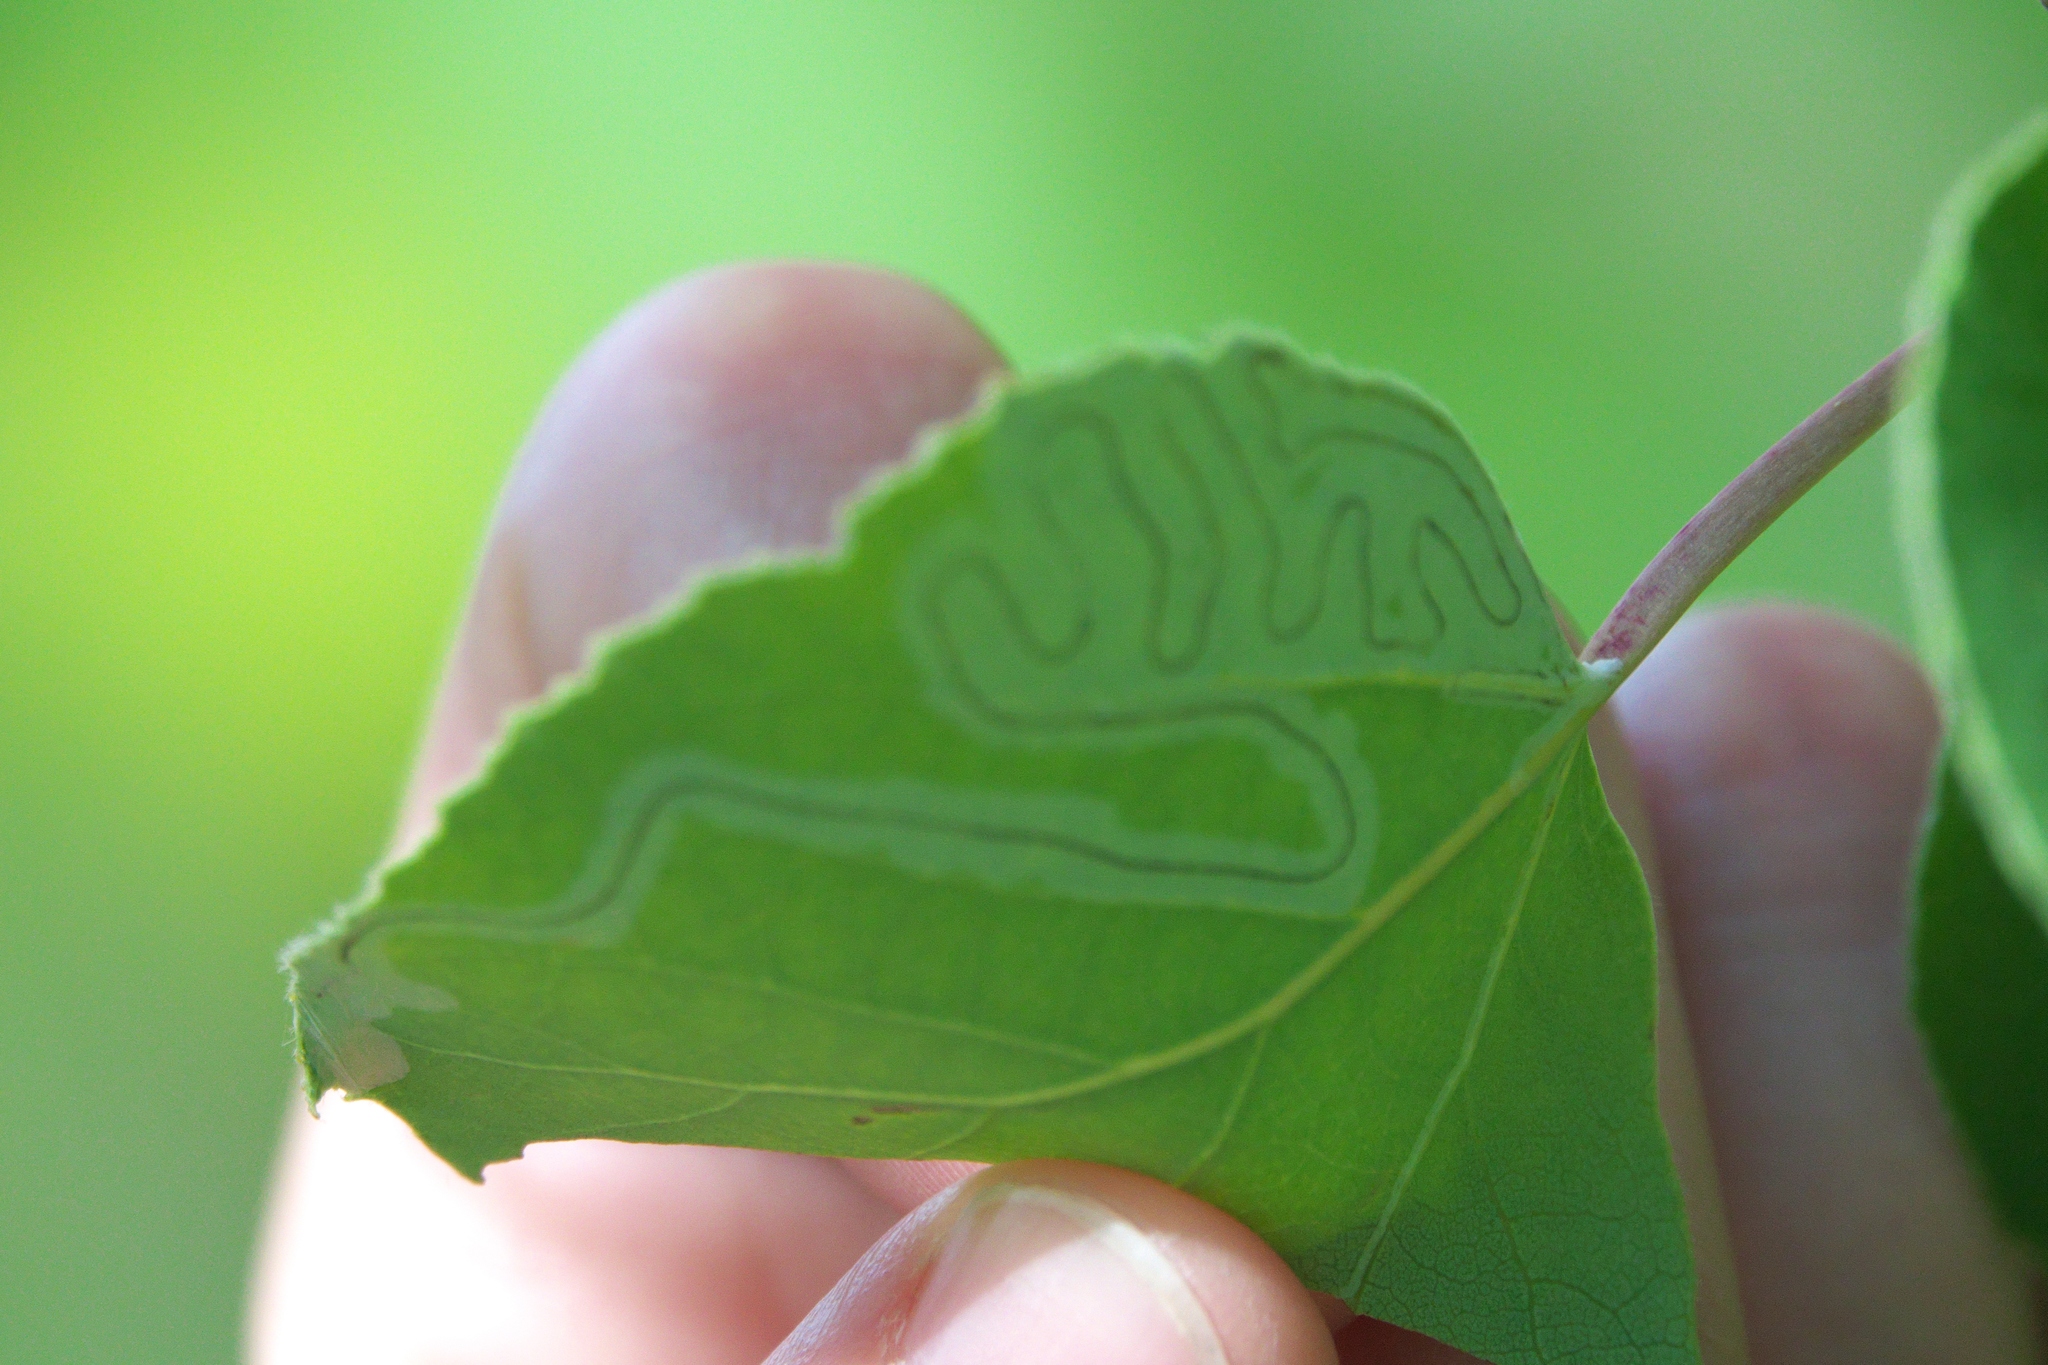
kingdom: Animalia
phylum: Arthropoda
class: Insecta
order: Lepidoptera
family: Gracillariidae
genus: Phyllocnistis
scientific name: Phyllocnistis populiella
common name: Aspen serpentine leafminer moth
